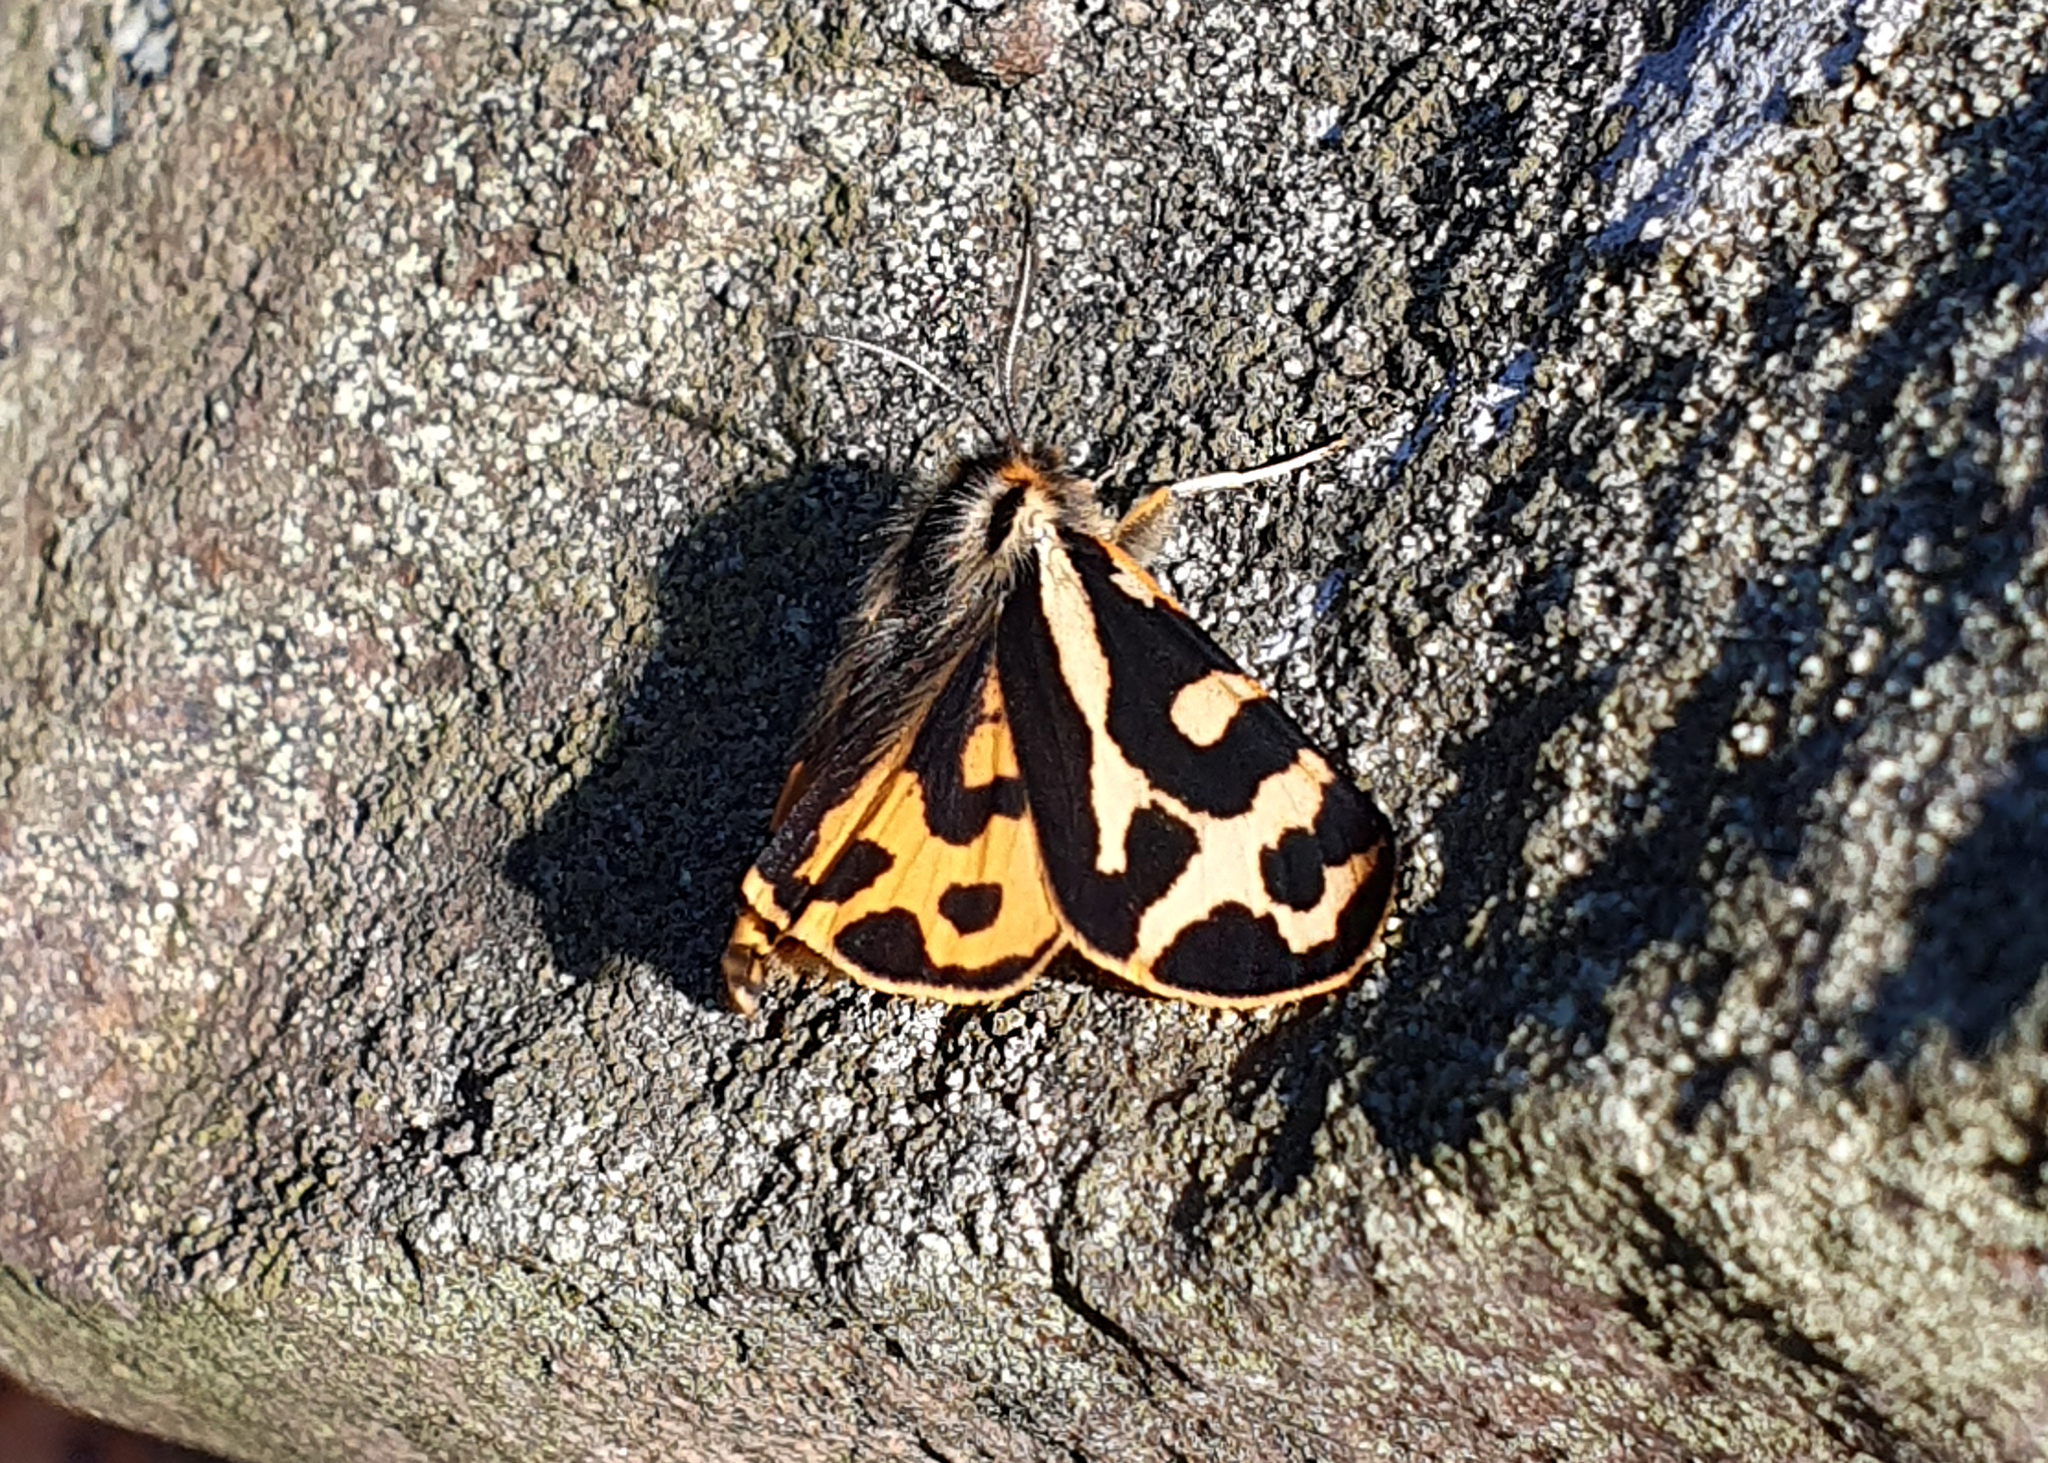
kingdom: Animalia
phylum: Arthropoda
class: Insecta
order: Lepidoptera
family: Erebidae
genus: Parasemia
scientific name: Parasemia plantaginis
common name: Wood tiger
